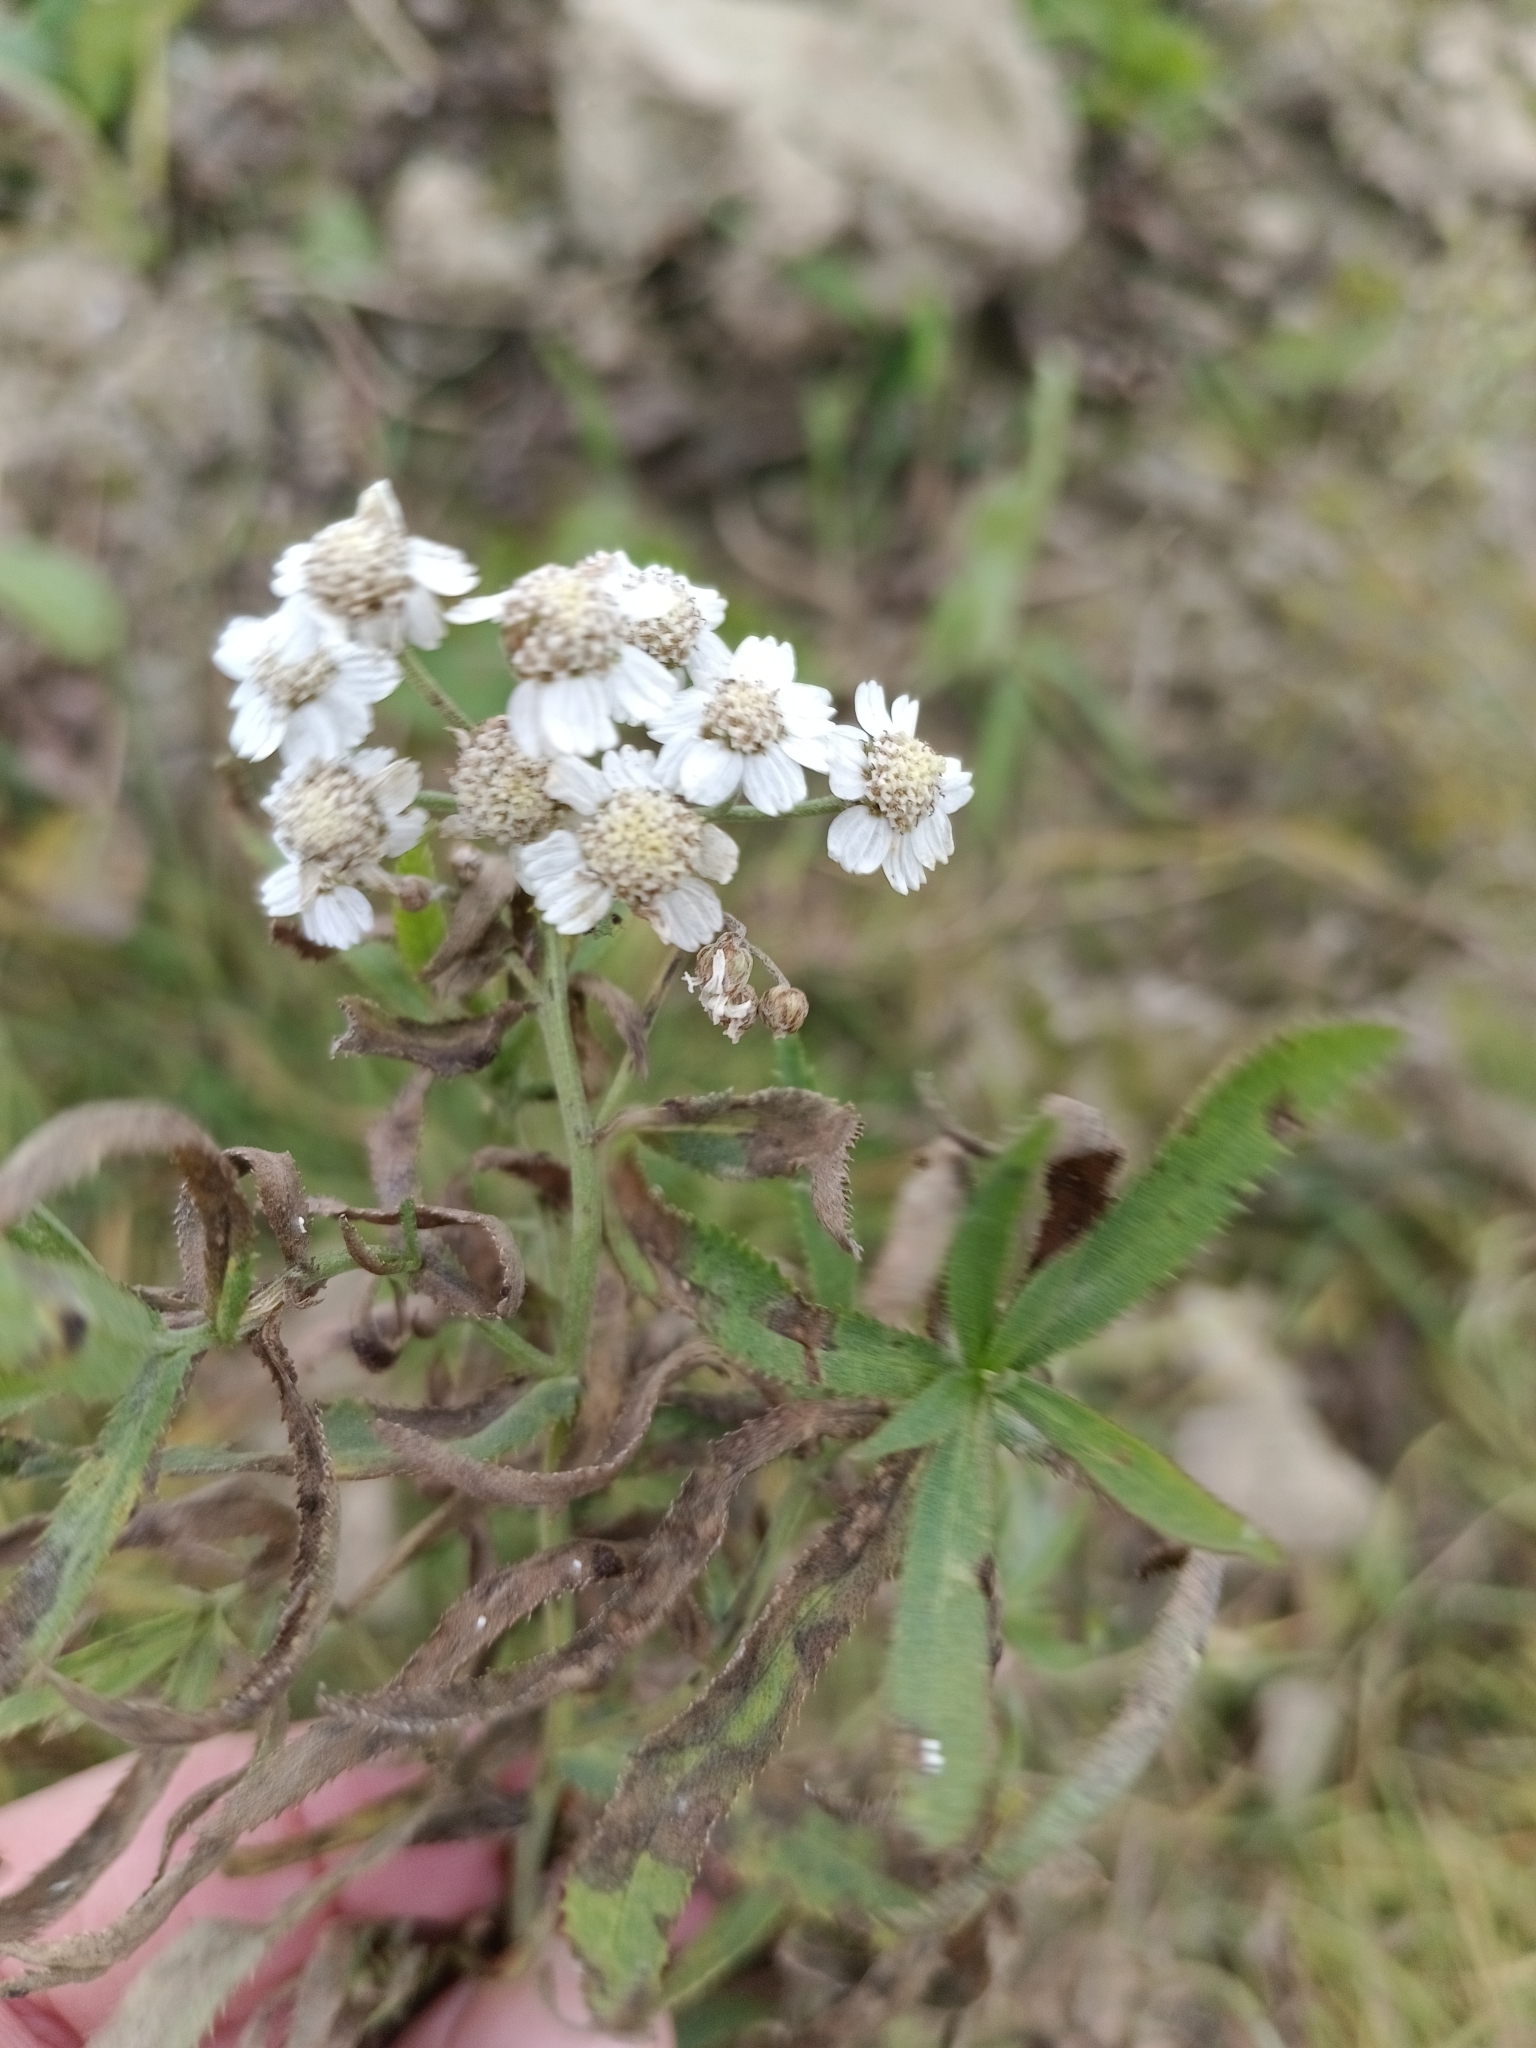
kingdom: Plantae
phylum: Tracheophyta
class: Magnoliopsida
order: Asterales
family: Asteraceae
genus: Achillea
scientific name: Achillea salicifolia
